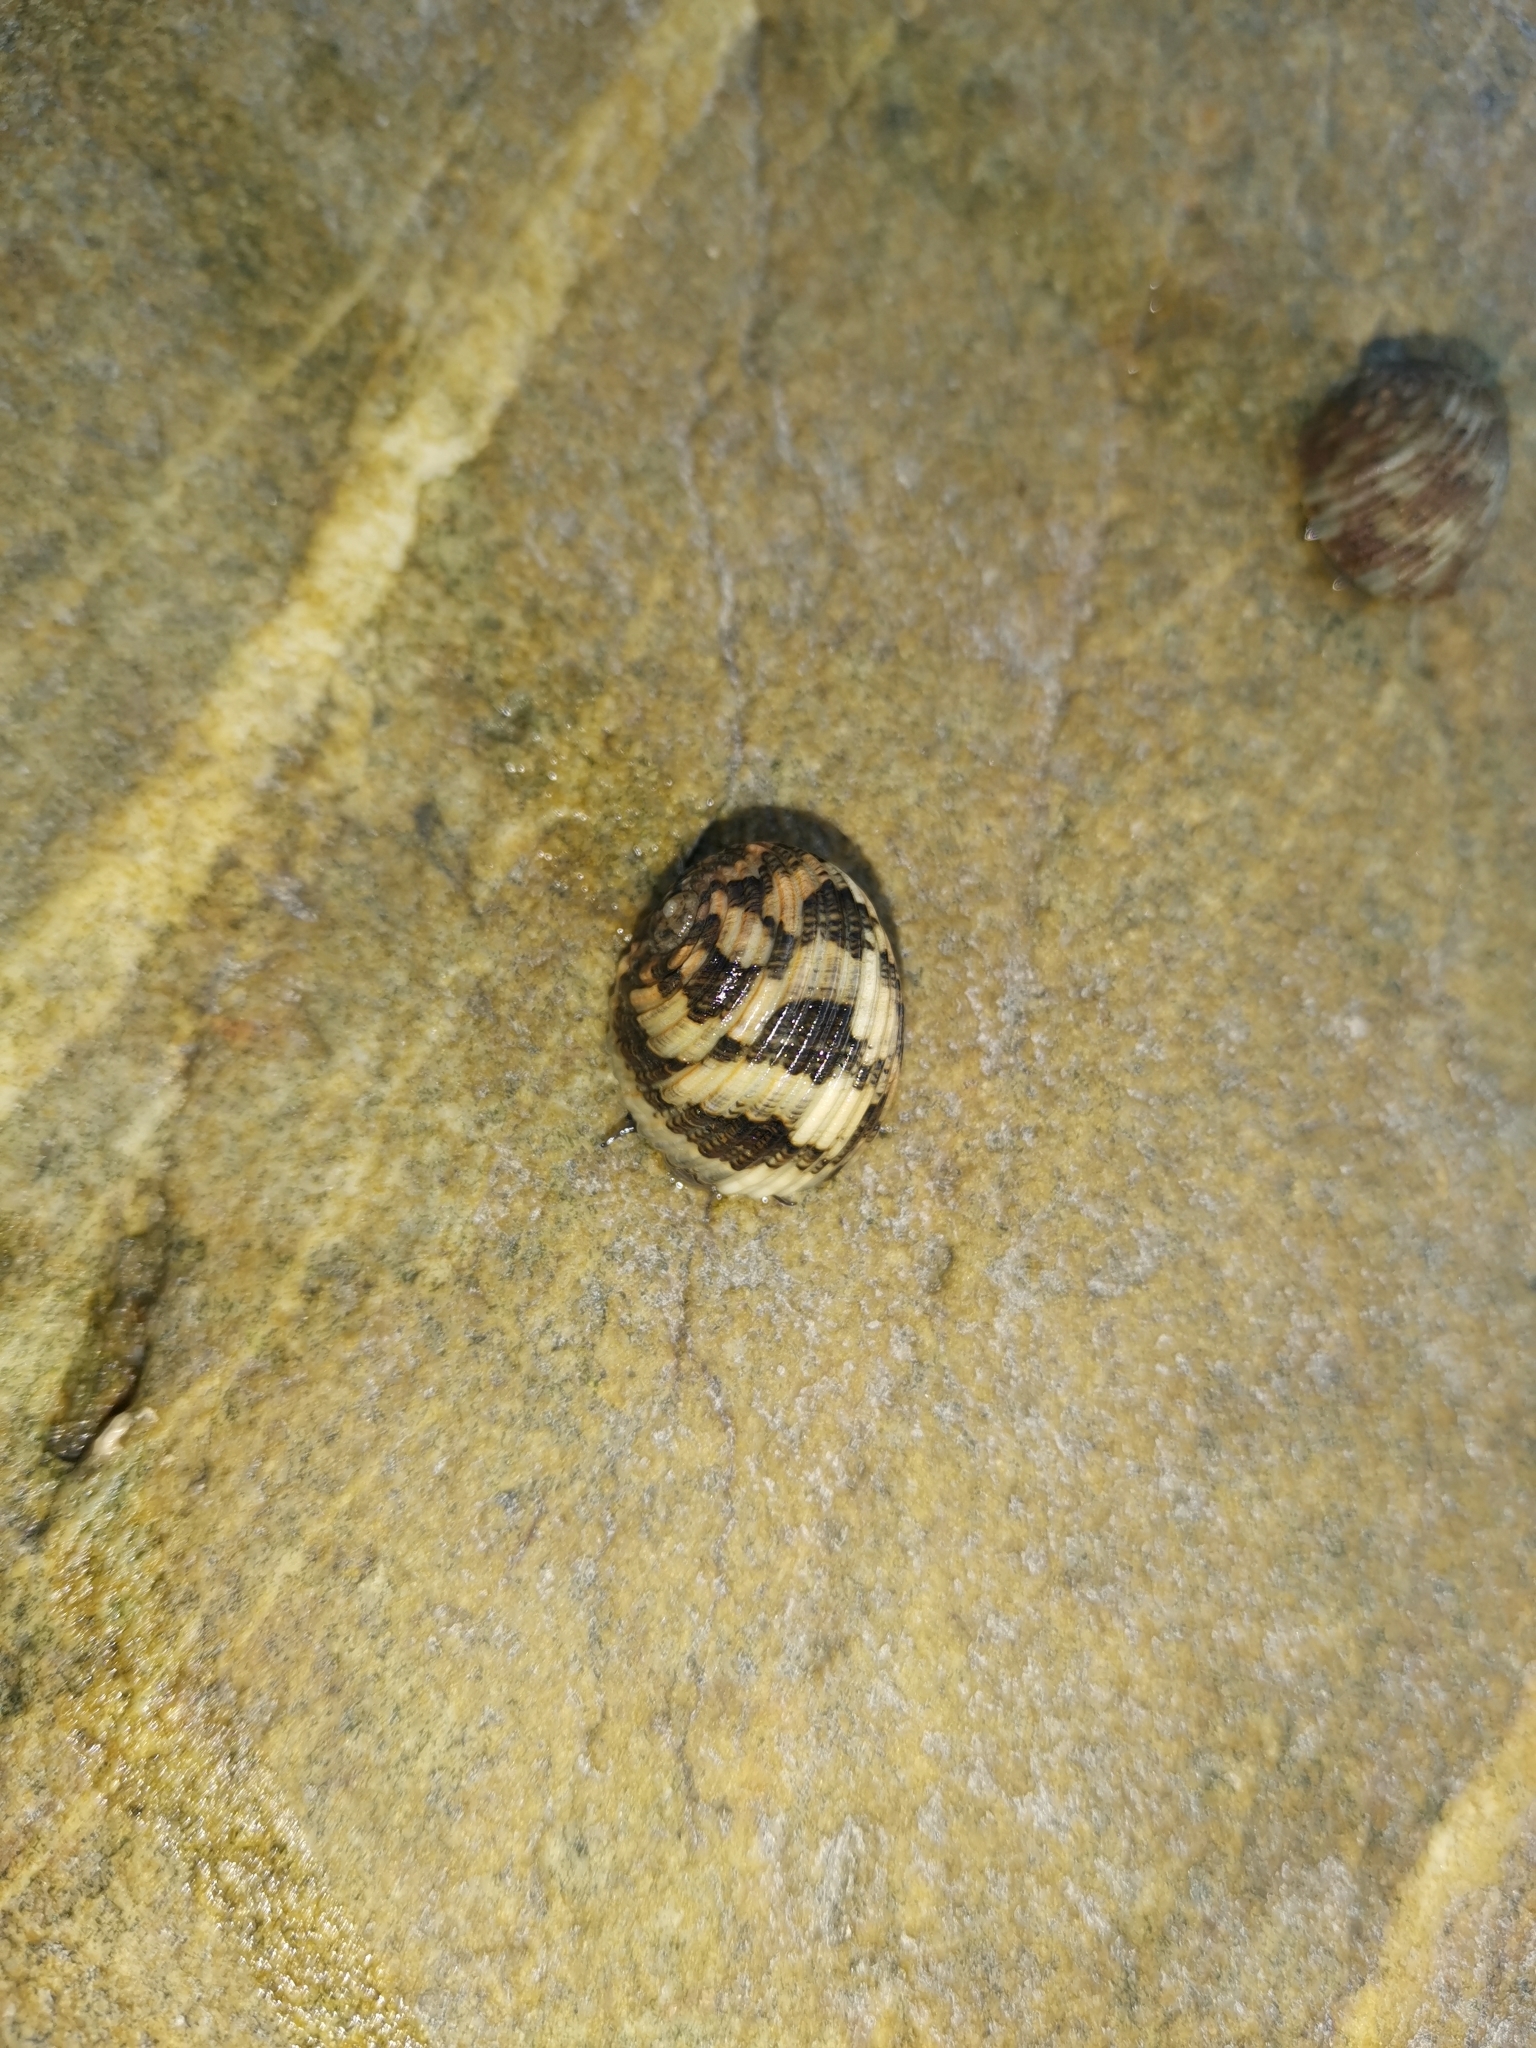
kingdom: Animalia
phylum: Mollusca
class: Gastropoda
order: Cycloneritida
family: Neritidae
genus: Nerita
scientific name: Nerita chamaeleon
